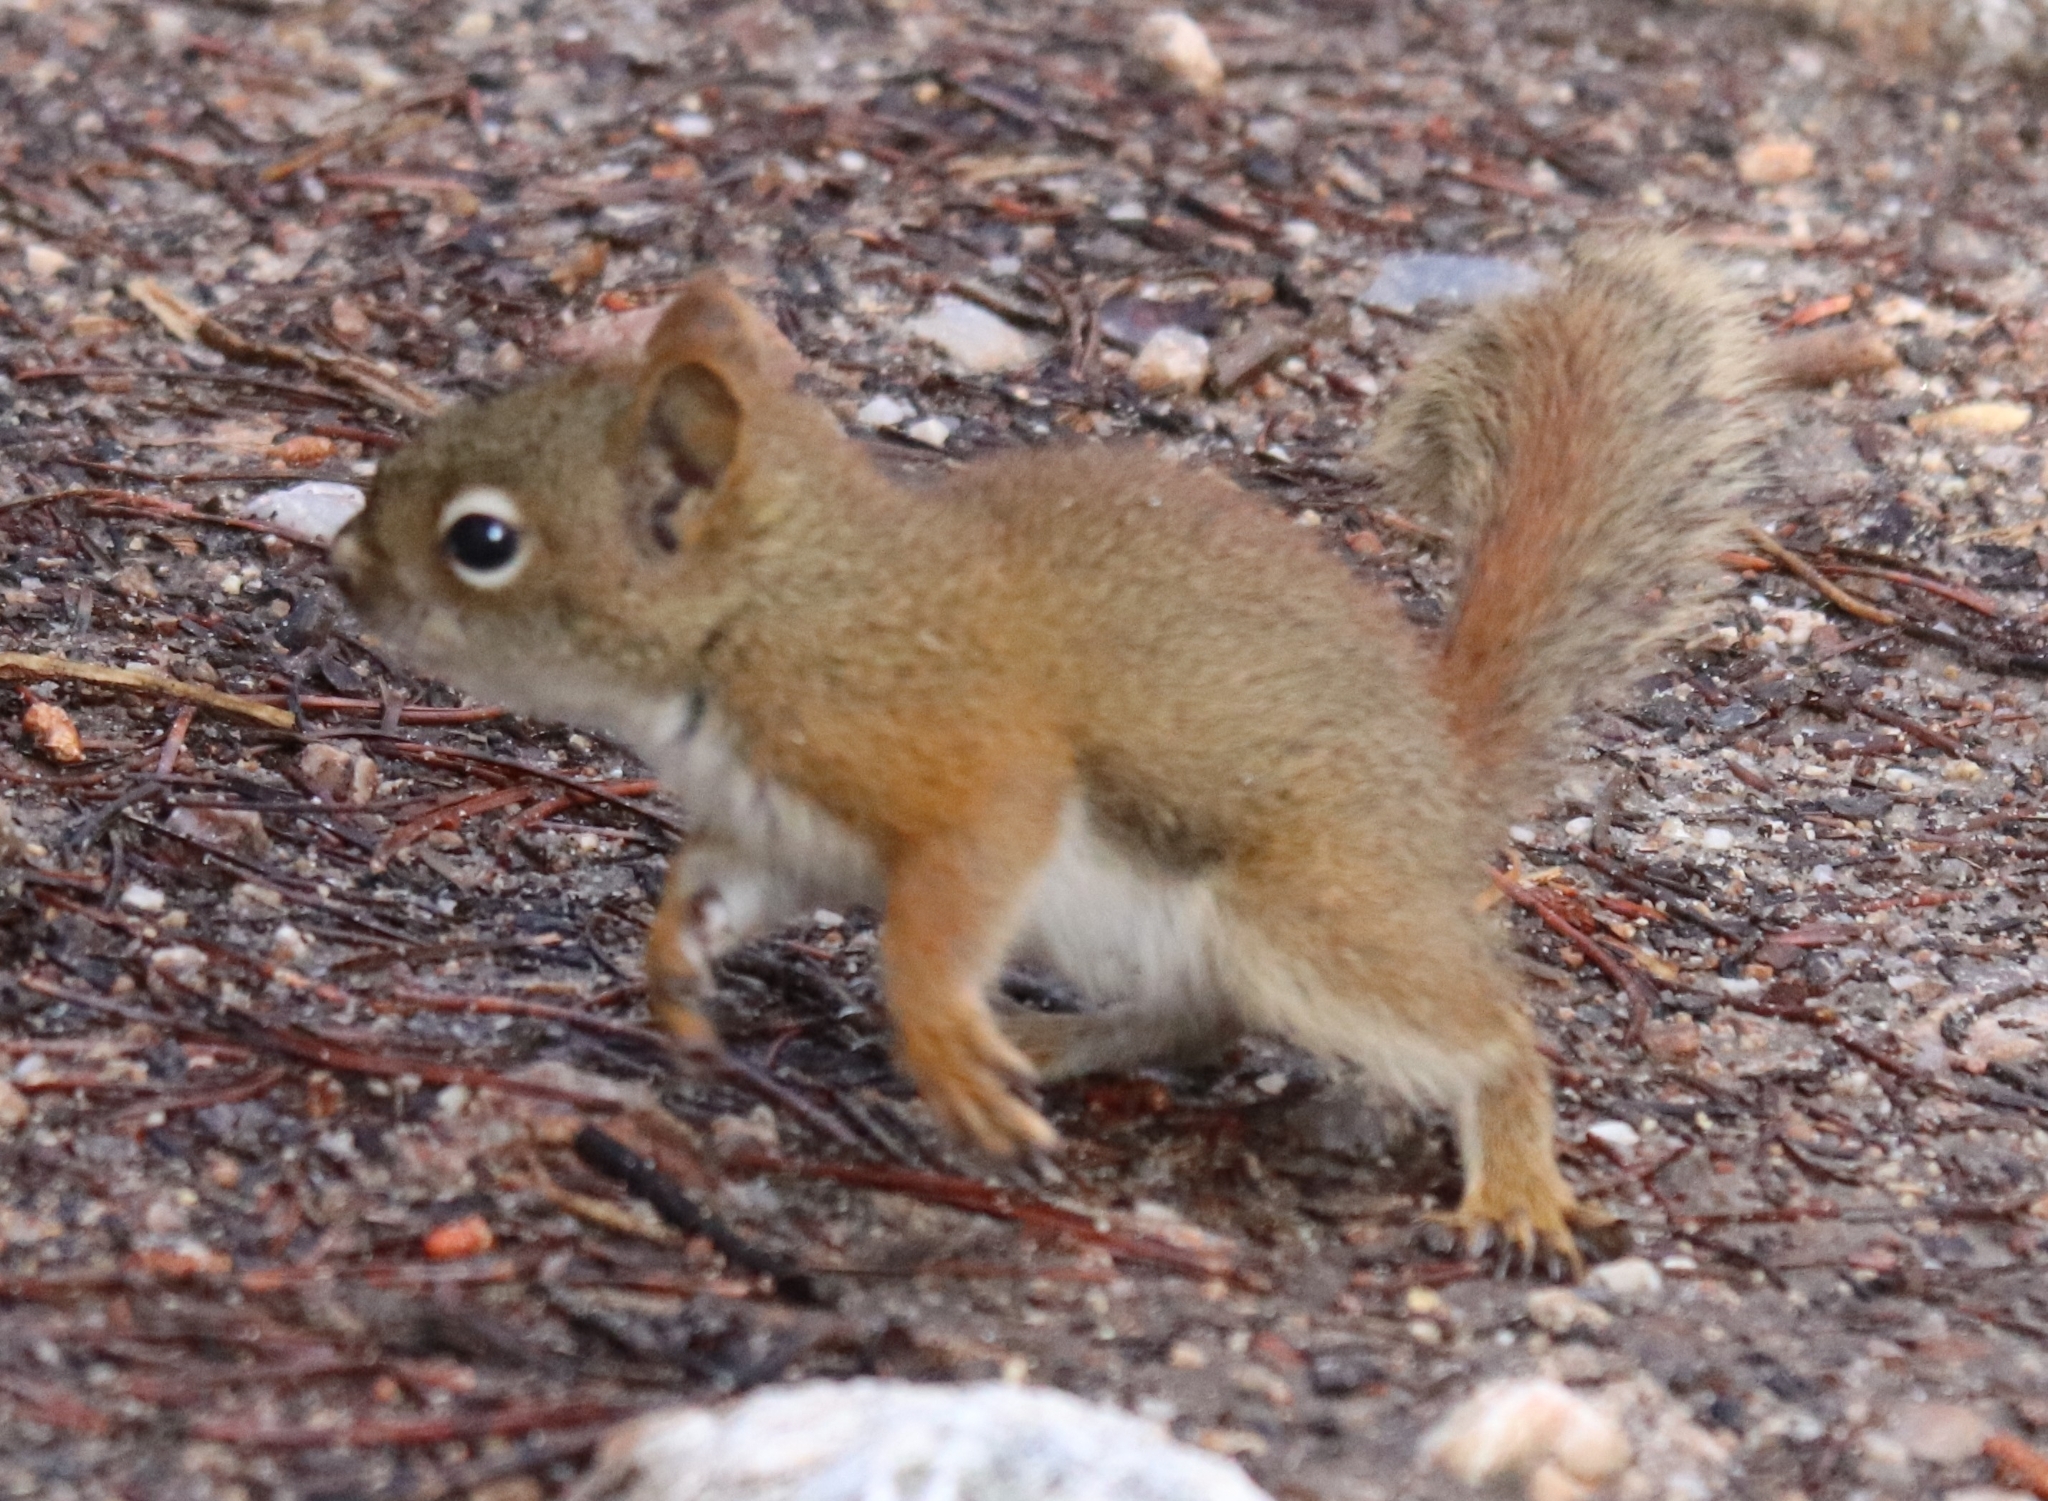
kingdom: Animalia
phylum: Chordata
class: Mammalia
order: Rodentia
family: Sciuridae
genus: Tamiasciurus
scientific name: Tamiasciurus hudsonicus
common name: Red squirrel
